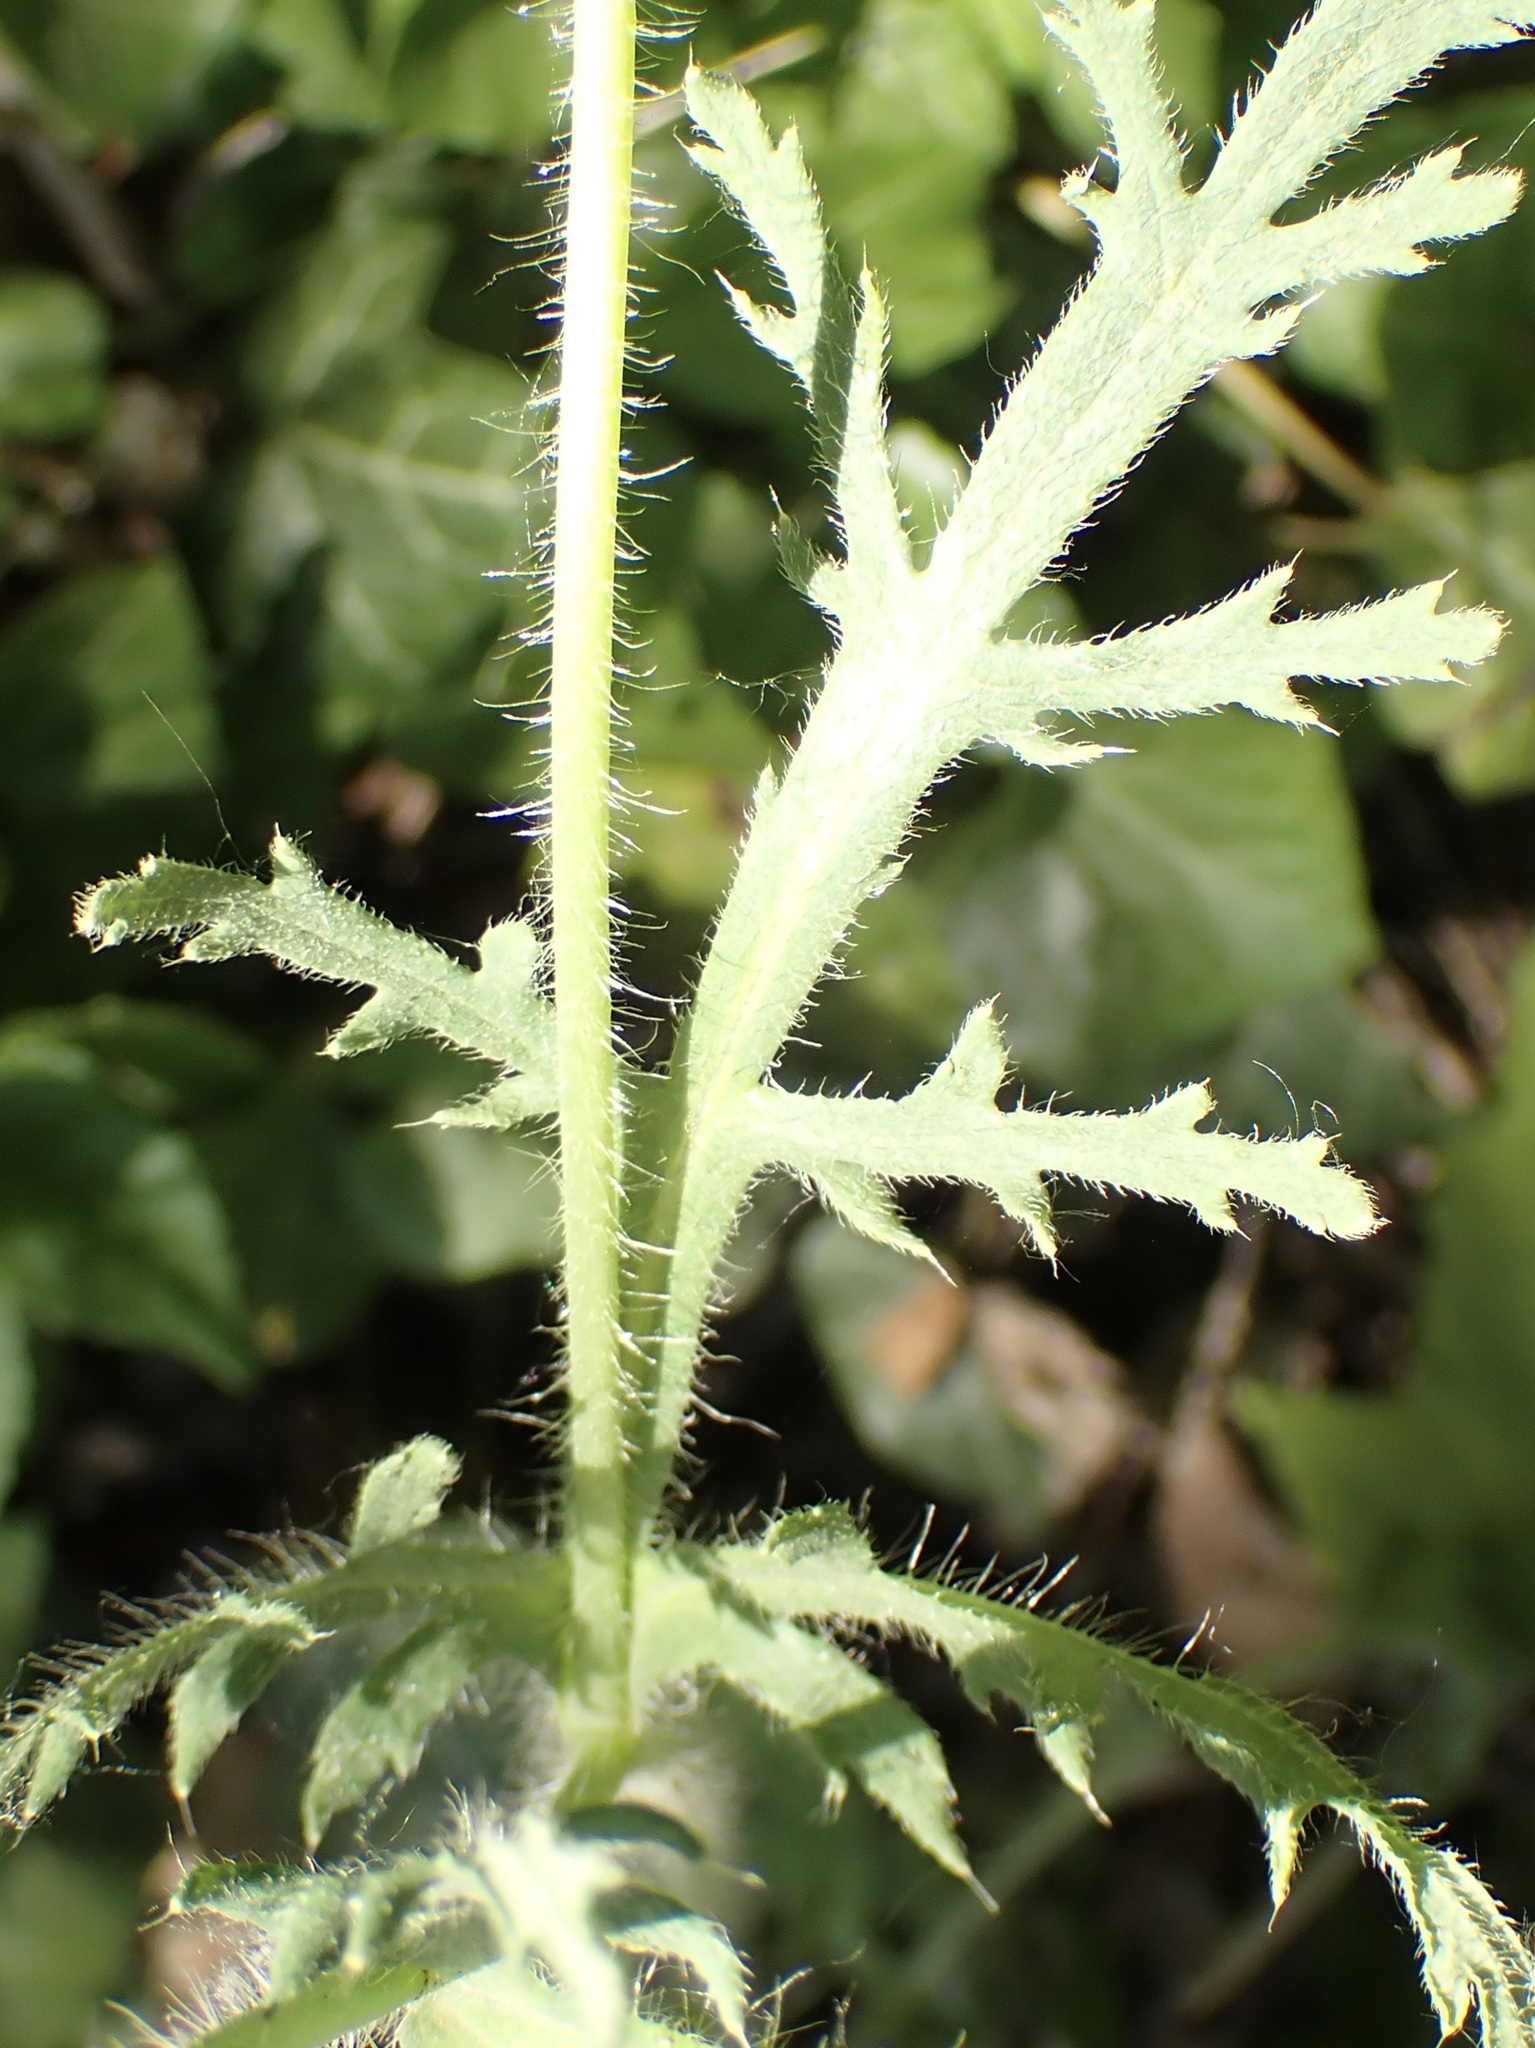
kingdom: Plantae
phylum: Tracheophyta
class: Magnoliopsida
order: Ranunculales
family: Papaveraceae
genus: Papaver
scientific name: Papaver dubium
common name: Long-headed poppy
